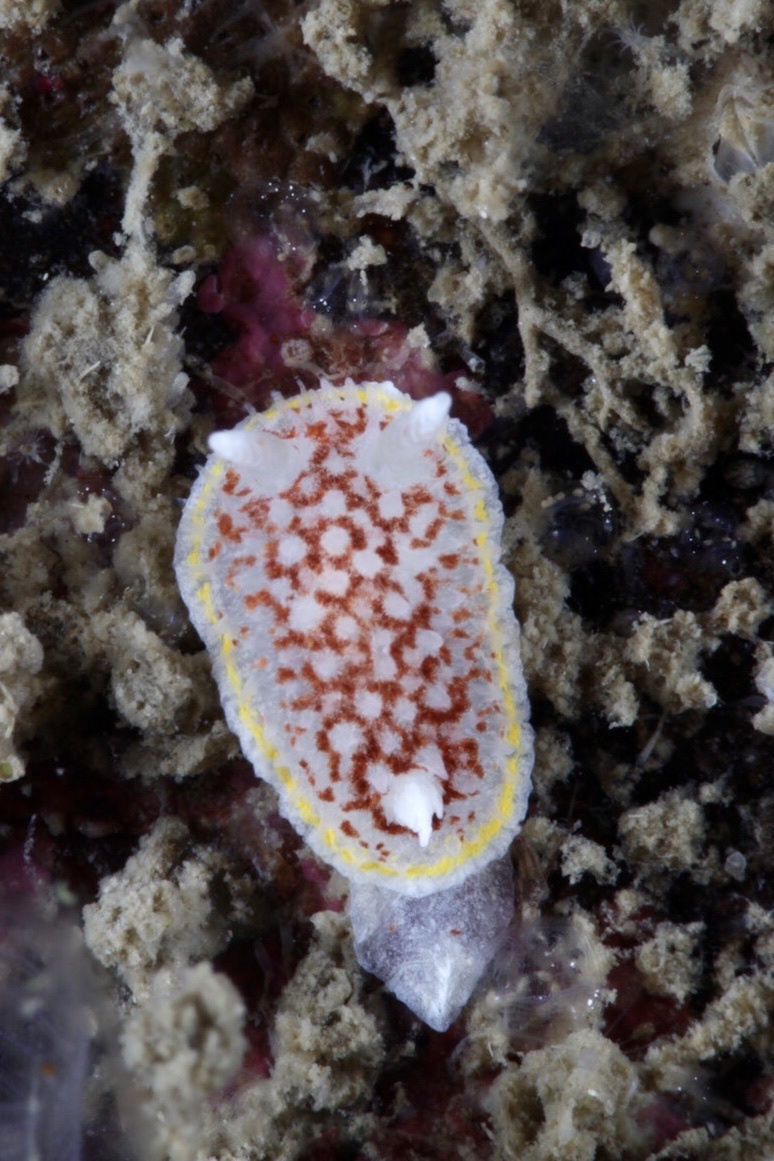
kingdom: Animalia
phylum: Mollusca
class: Gastropoda
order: Nudibranchia
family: Calycidorididae
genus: Diaphorodoris
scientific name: Diaphorodoris luteocincta
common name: Fried egg nudibranch
